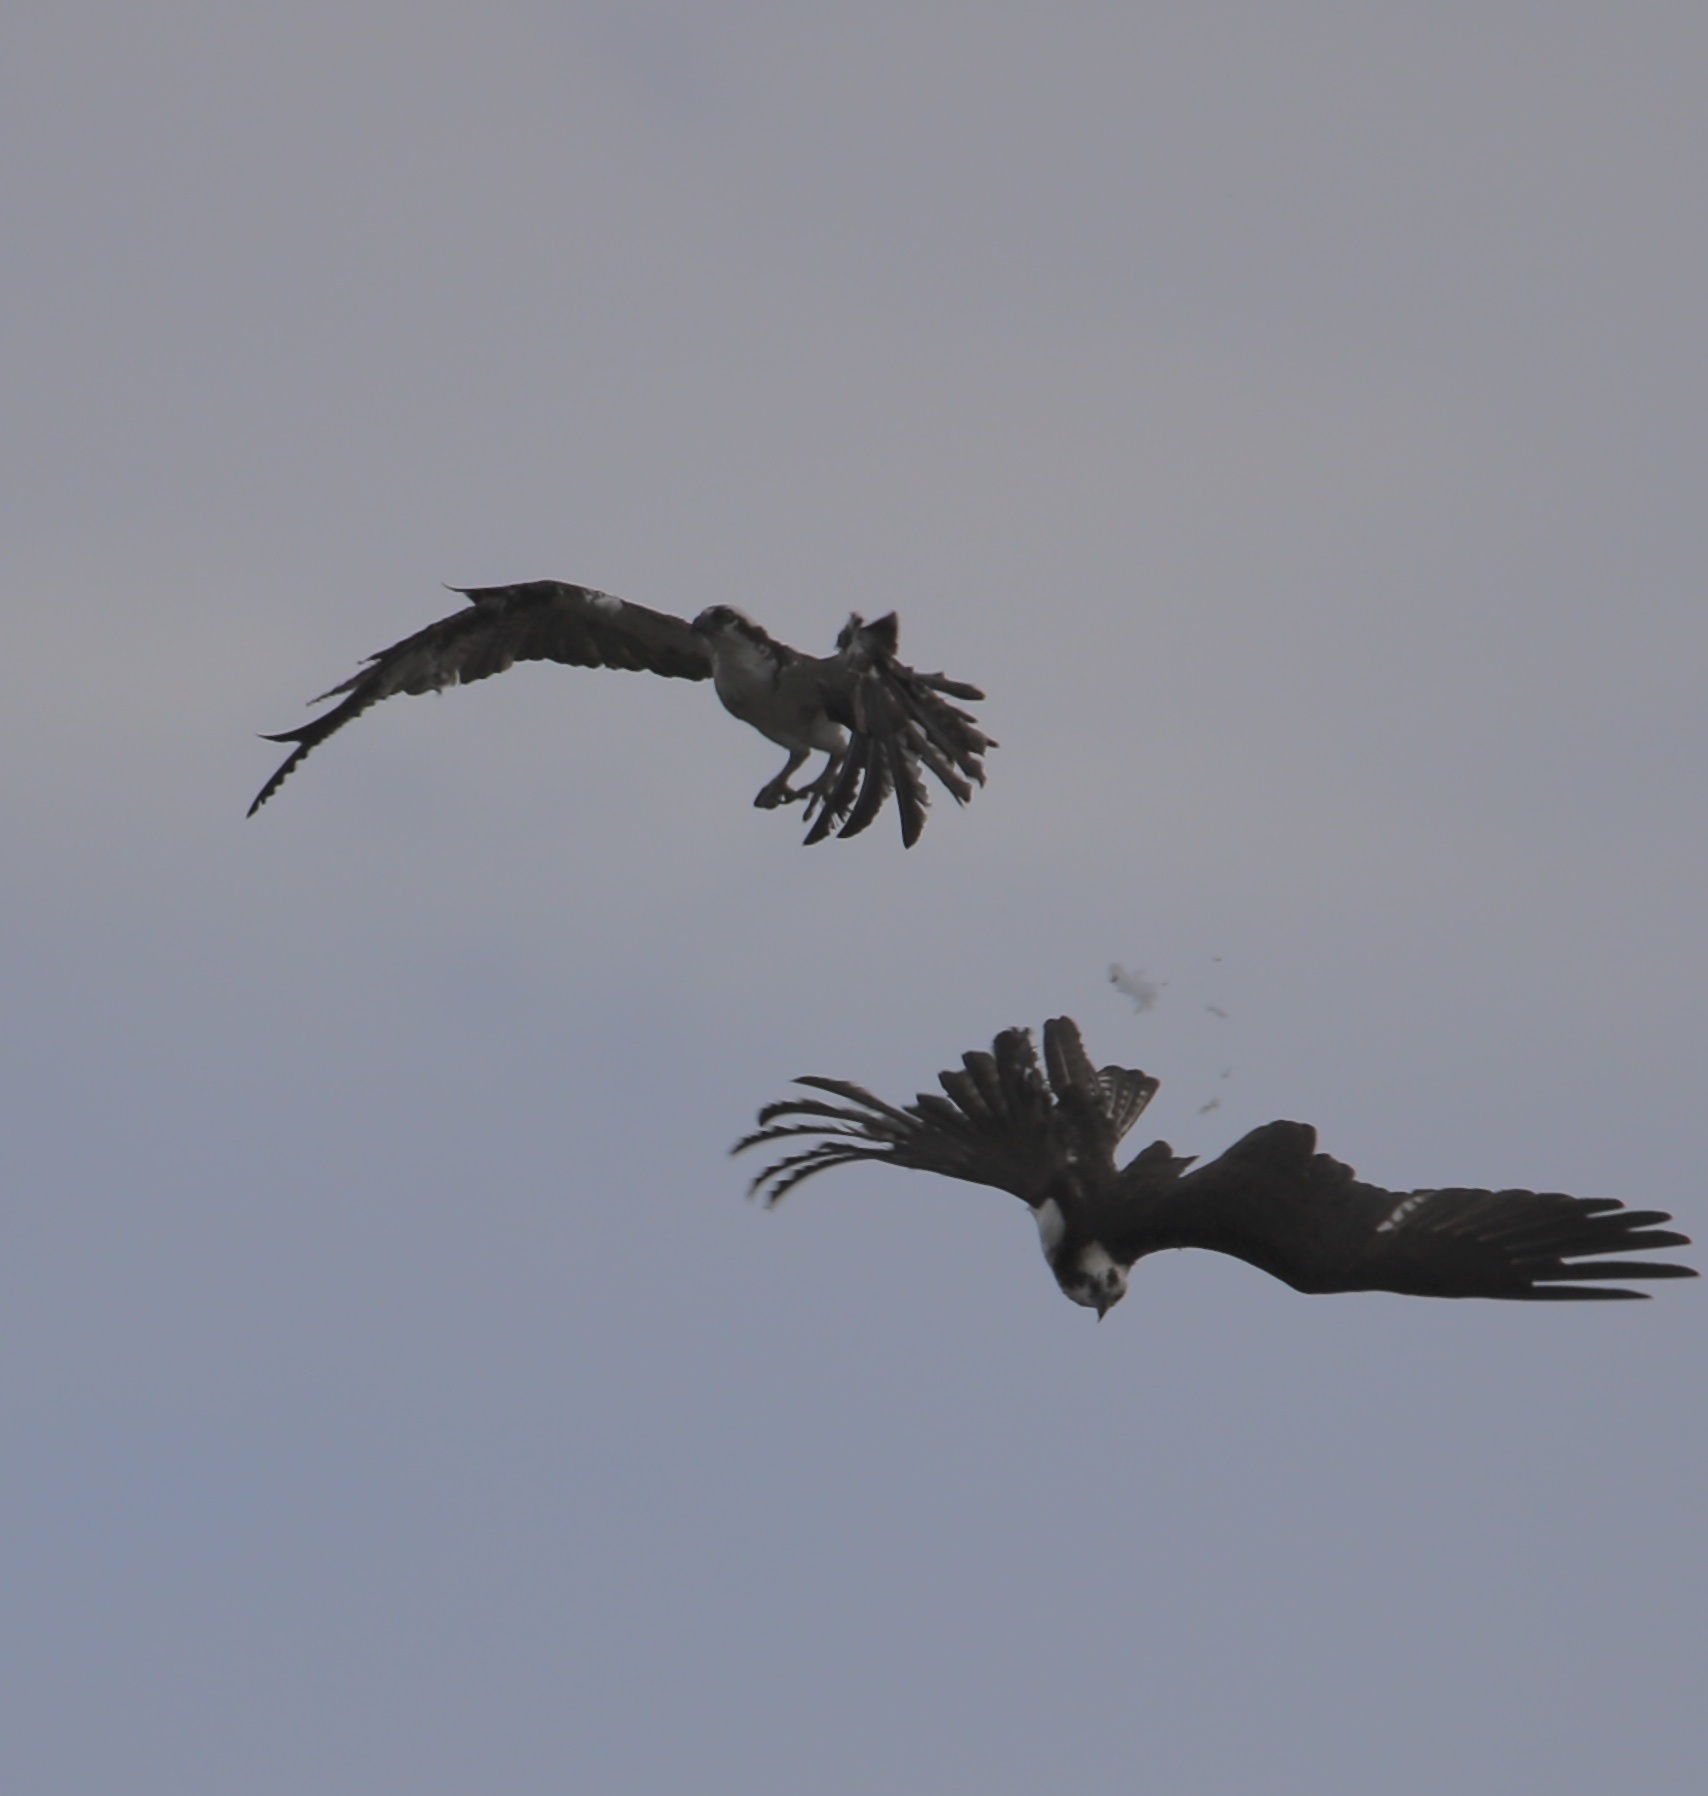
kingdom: Animalia
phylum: Chordata
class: Aves
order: Accipitriformes
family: Pandionidae
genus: Pandion
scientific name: Pandion haliaetus
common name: Osprey
